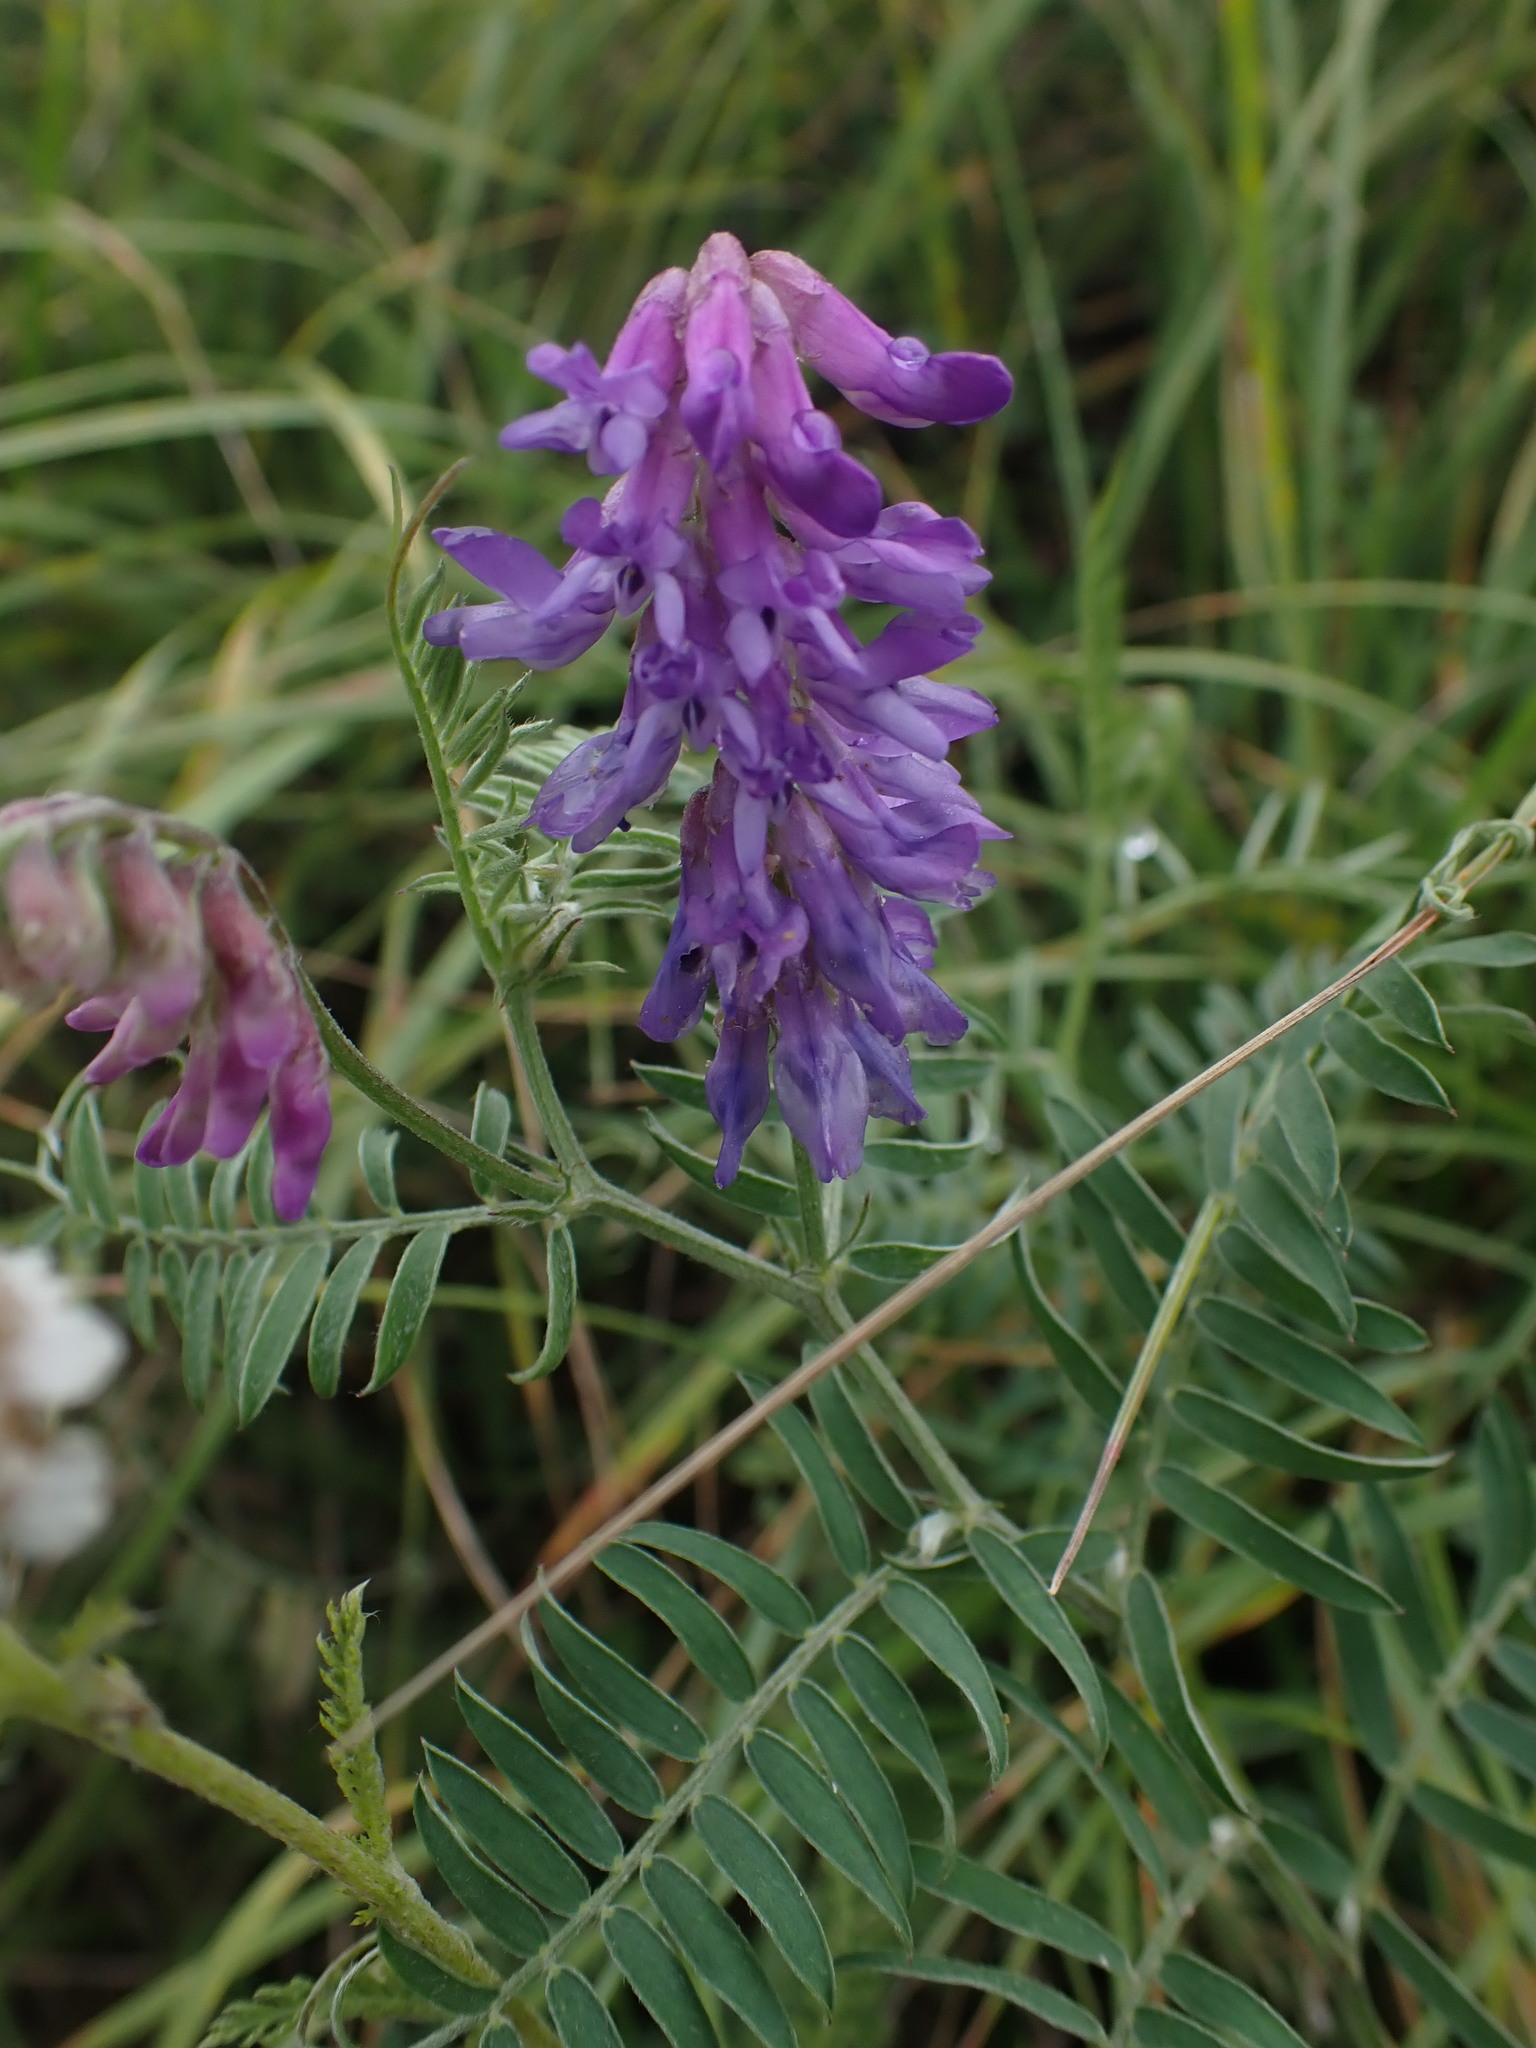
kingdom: Plantae
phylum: Tracheophyta
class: Magnoliopsida
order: Fabales
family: Fabaceae
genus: Vicia
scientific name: Vicia cracca
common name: Bird vetch
